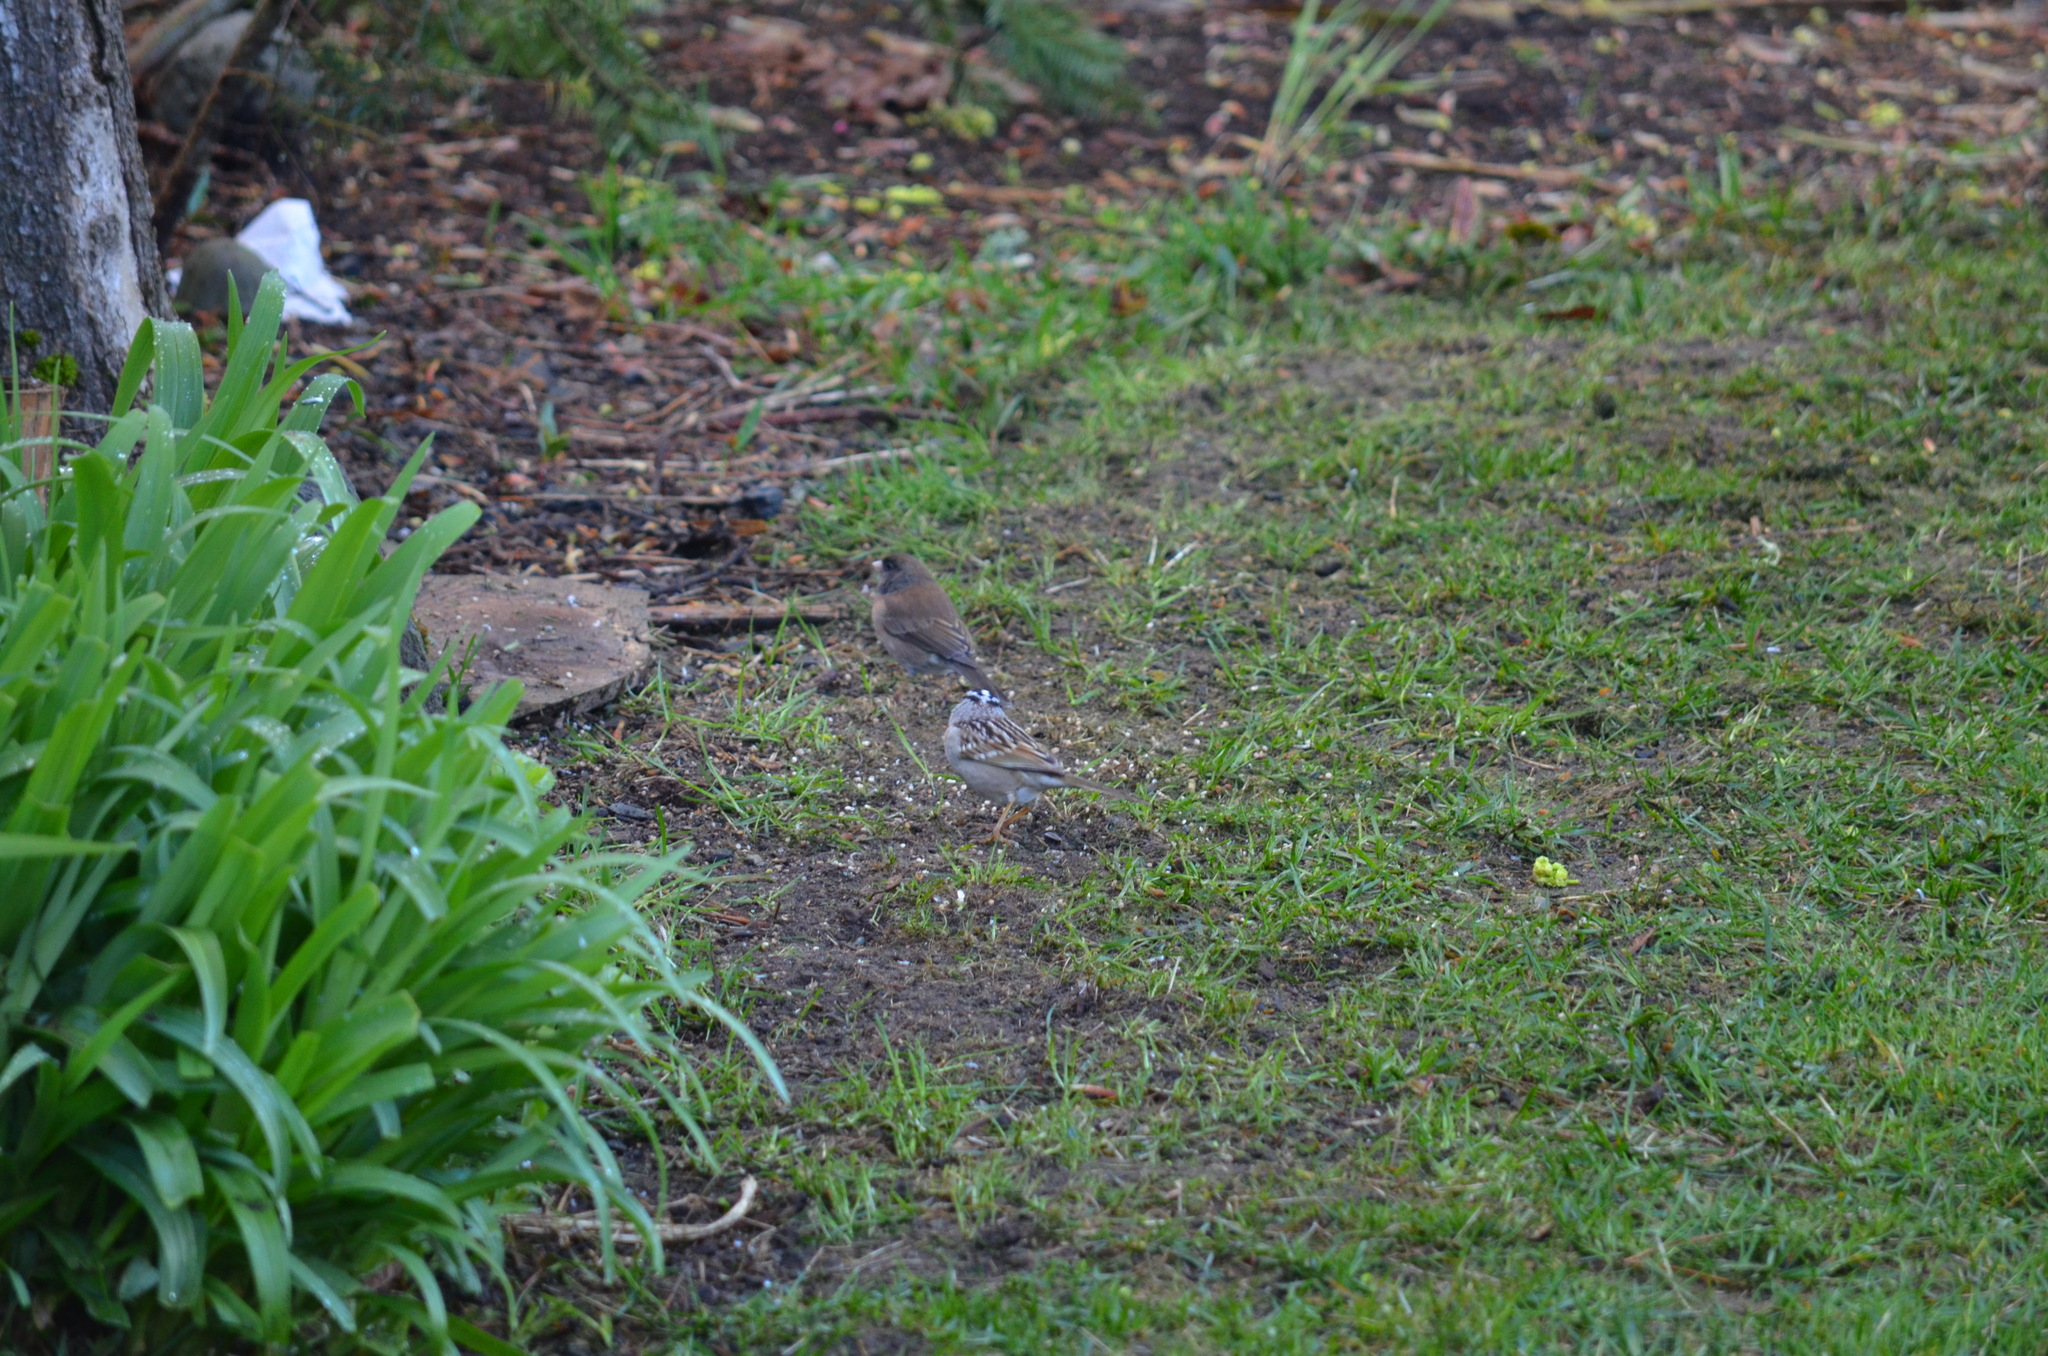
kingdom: Animalia
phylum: Chordata
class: Aves
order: Passeriformes
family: Passerellidae
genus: Zonotrichia
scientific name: Zonotrichia leucophrys
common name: White-crowned sparrow
